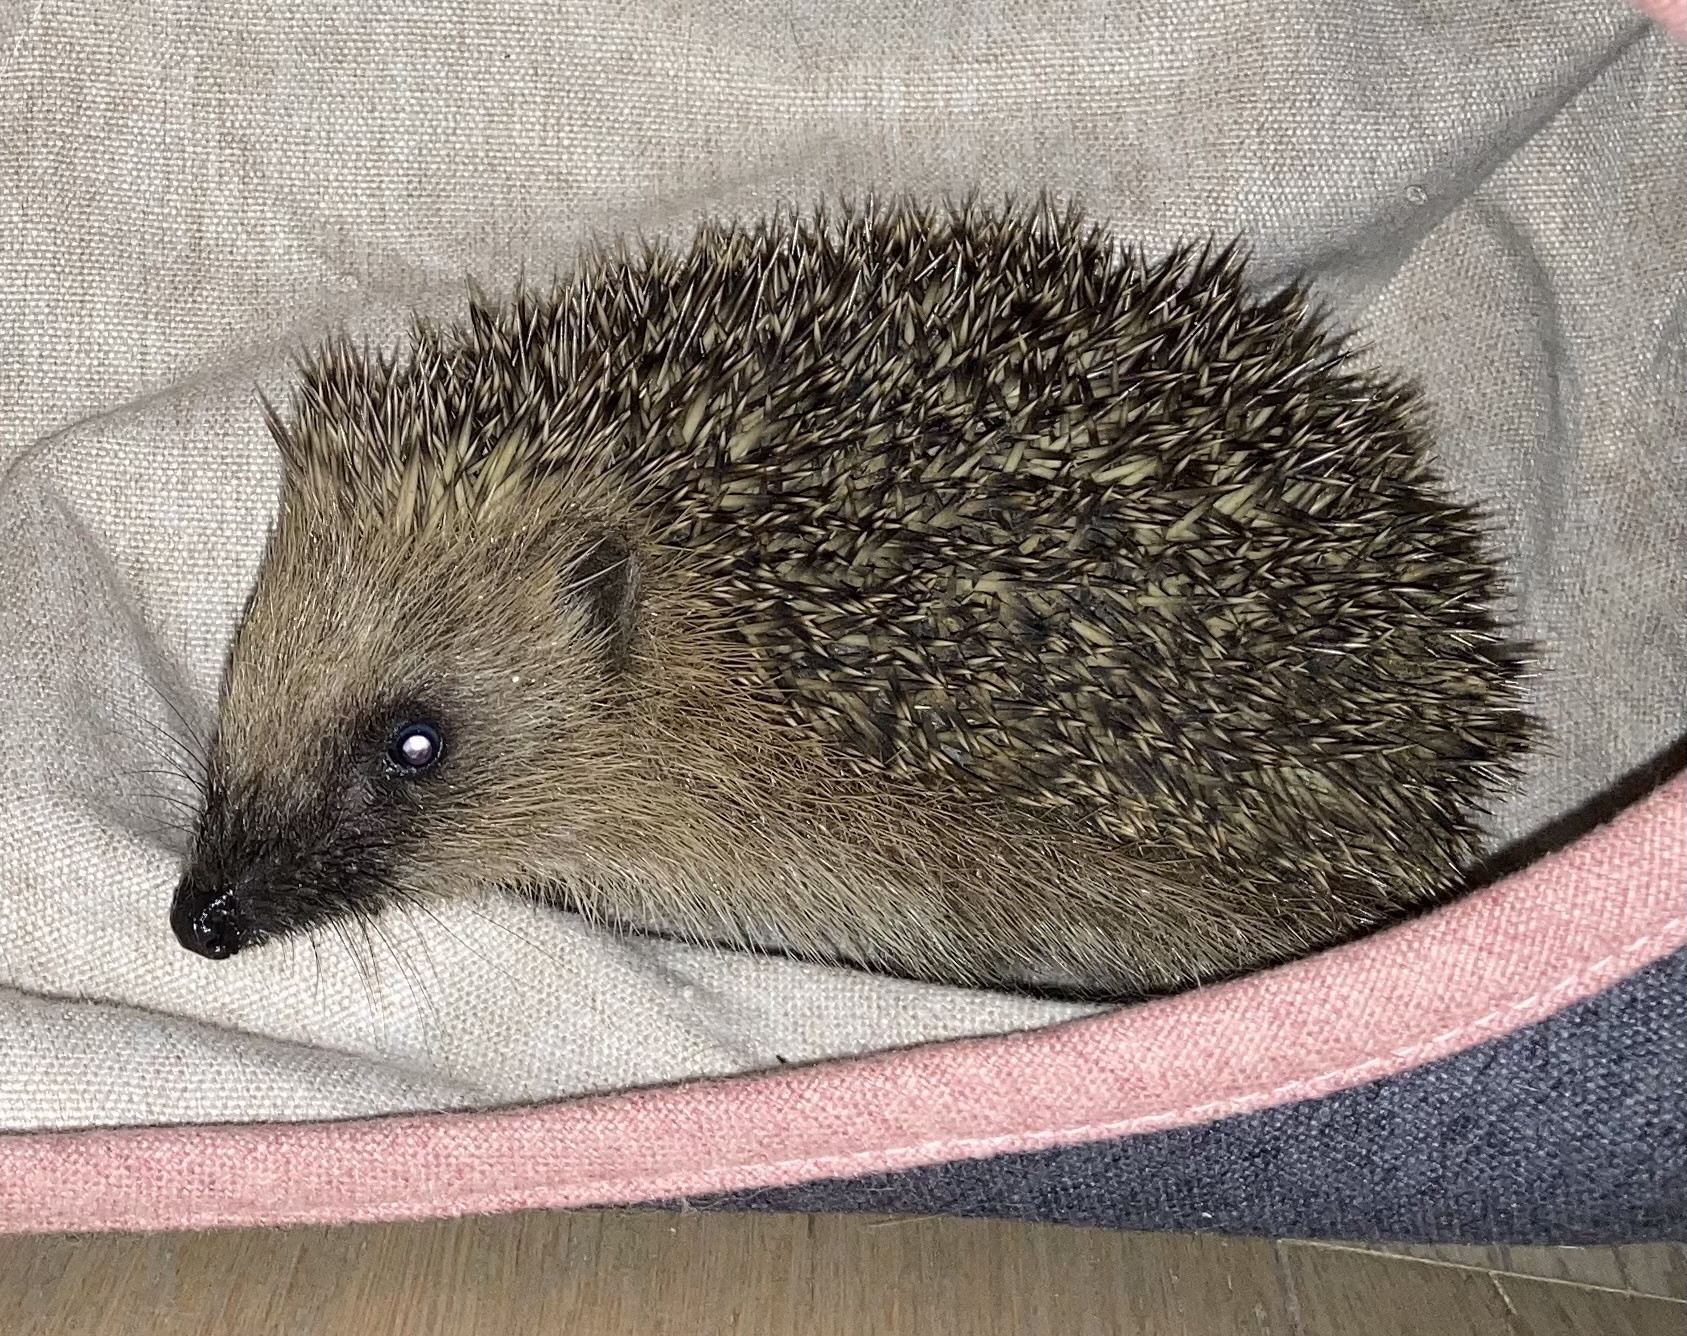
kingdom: Animalia
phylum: Chordata
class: Mammalia
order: Erinaceomorpha
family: Erinaceidae
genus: Erinaceus
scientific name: Erinaceus europaeus
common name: West european hedgehog
